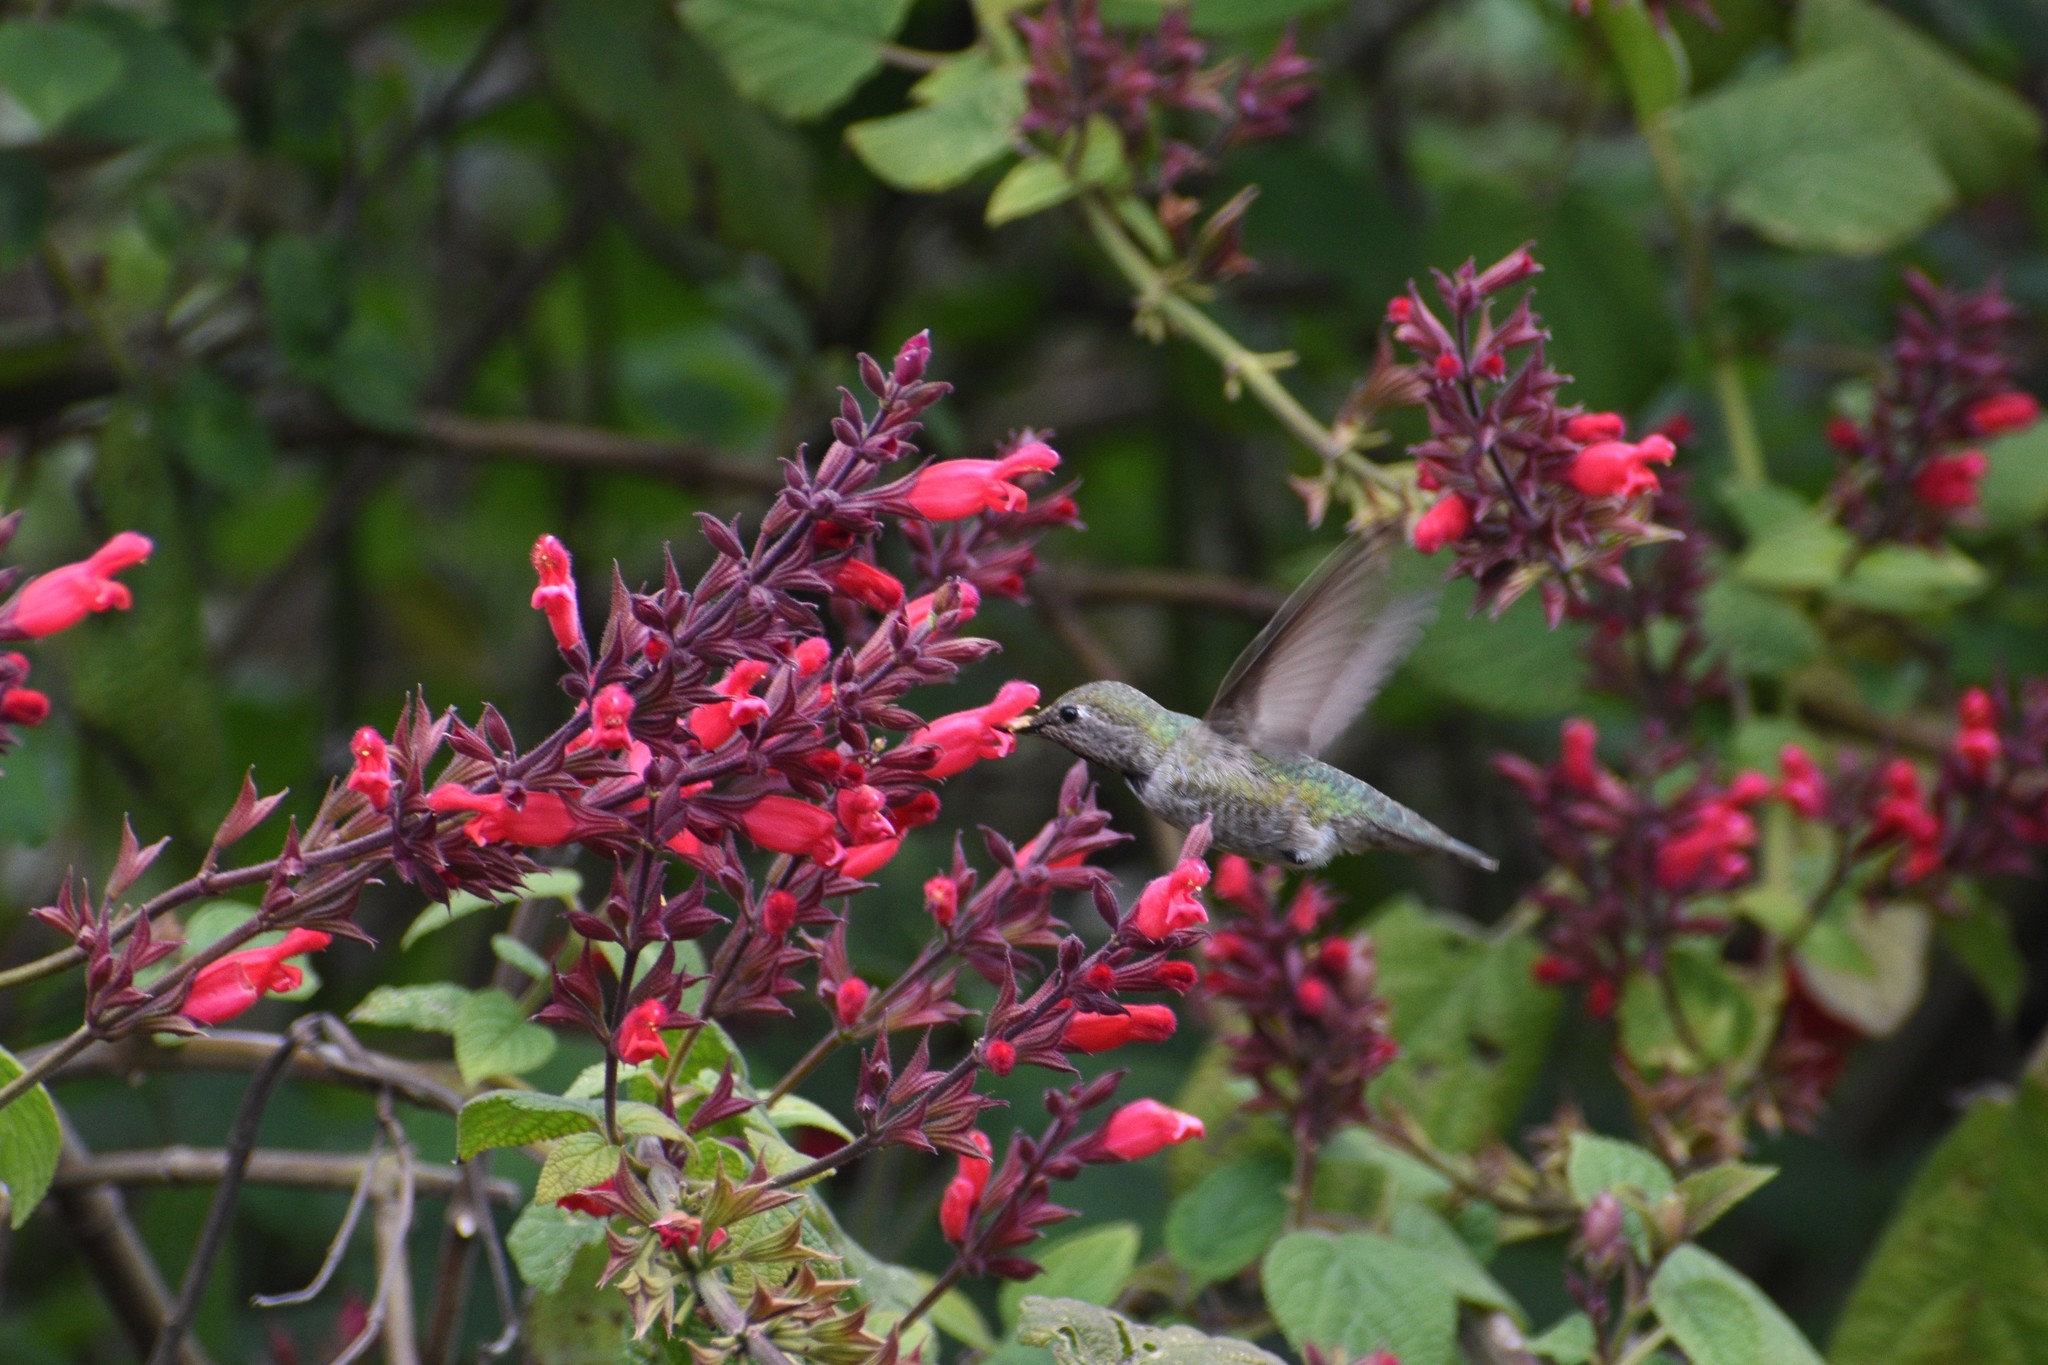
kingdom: Animalia
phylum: Chordata
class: Aves
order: Apodiformes
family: Trochilidae
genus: Calypte
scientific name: Calypte anna
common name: Anna's hummingbird
